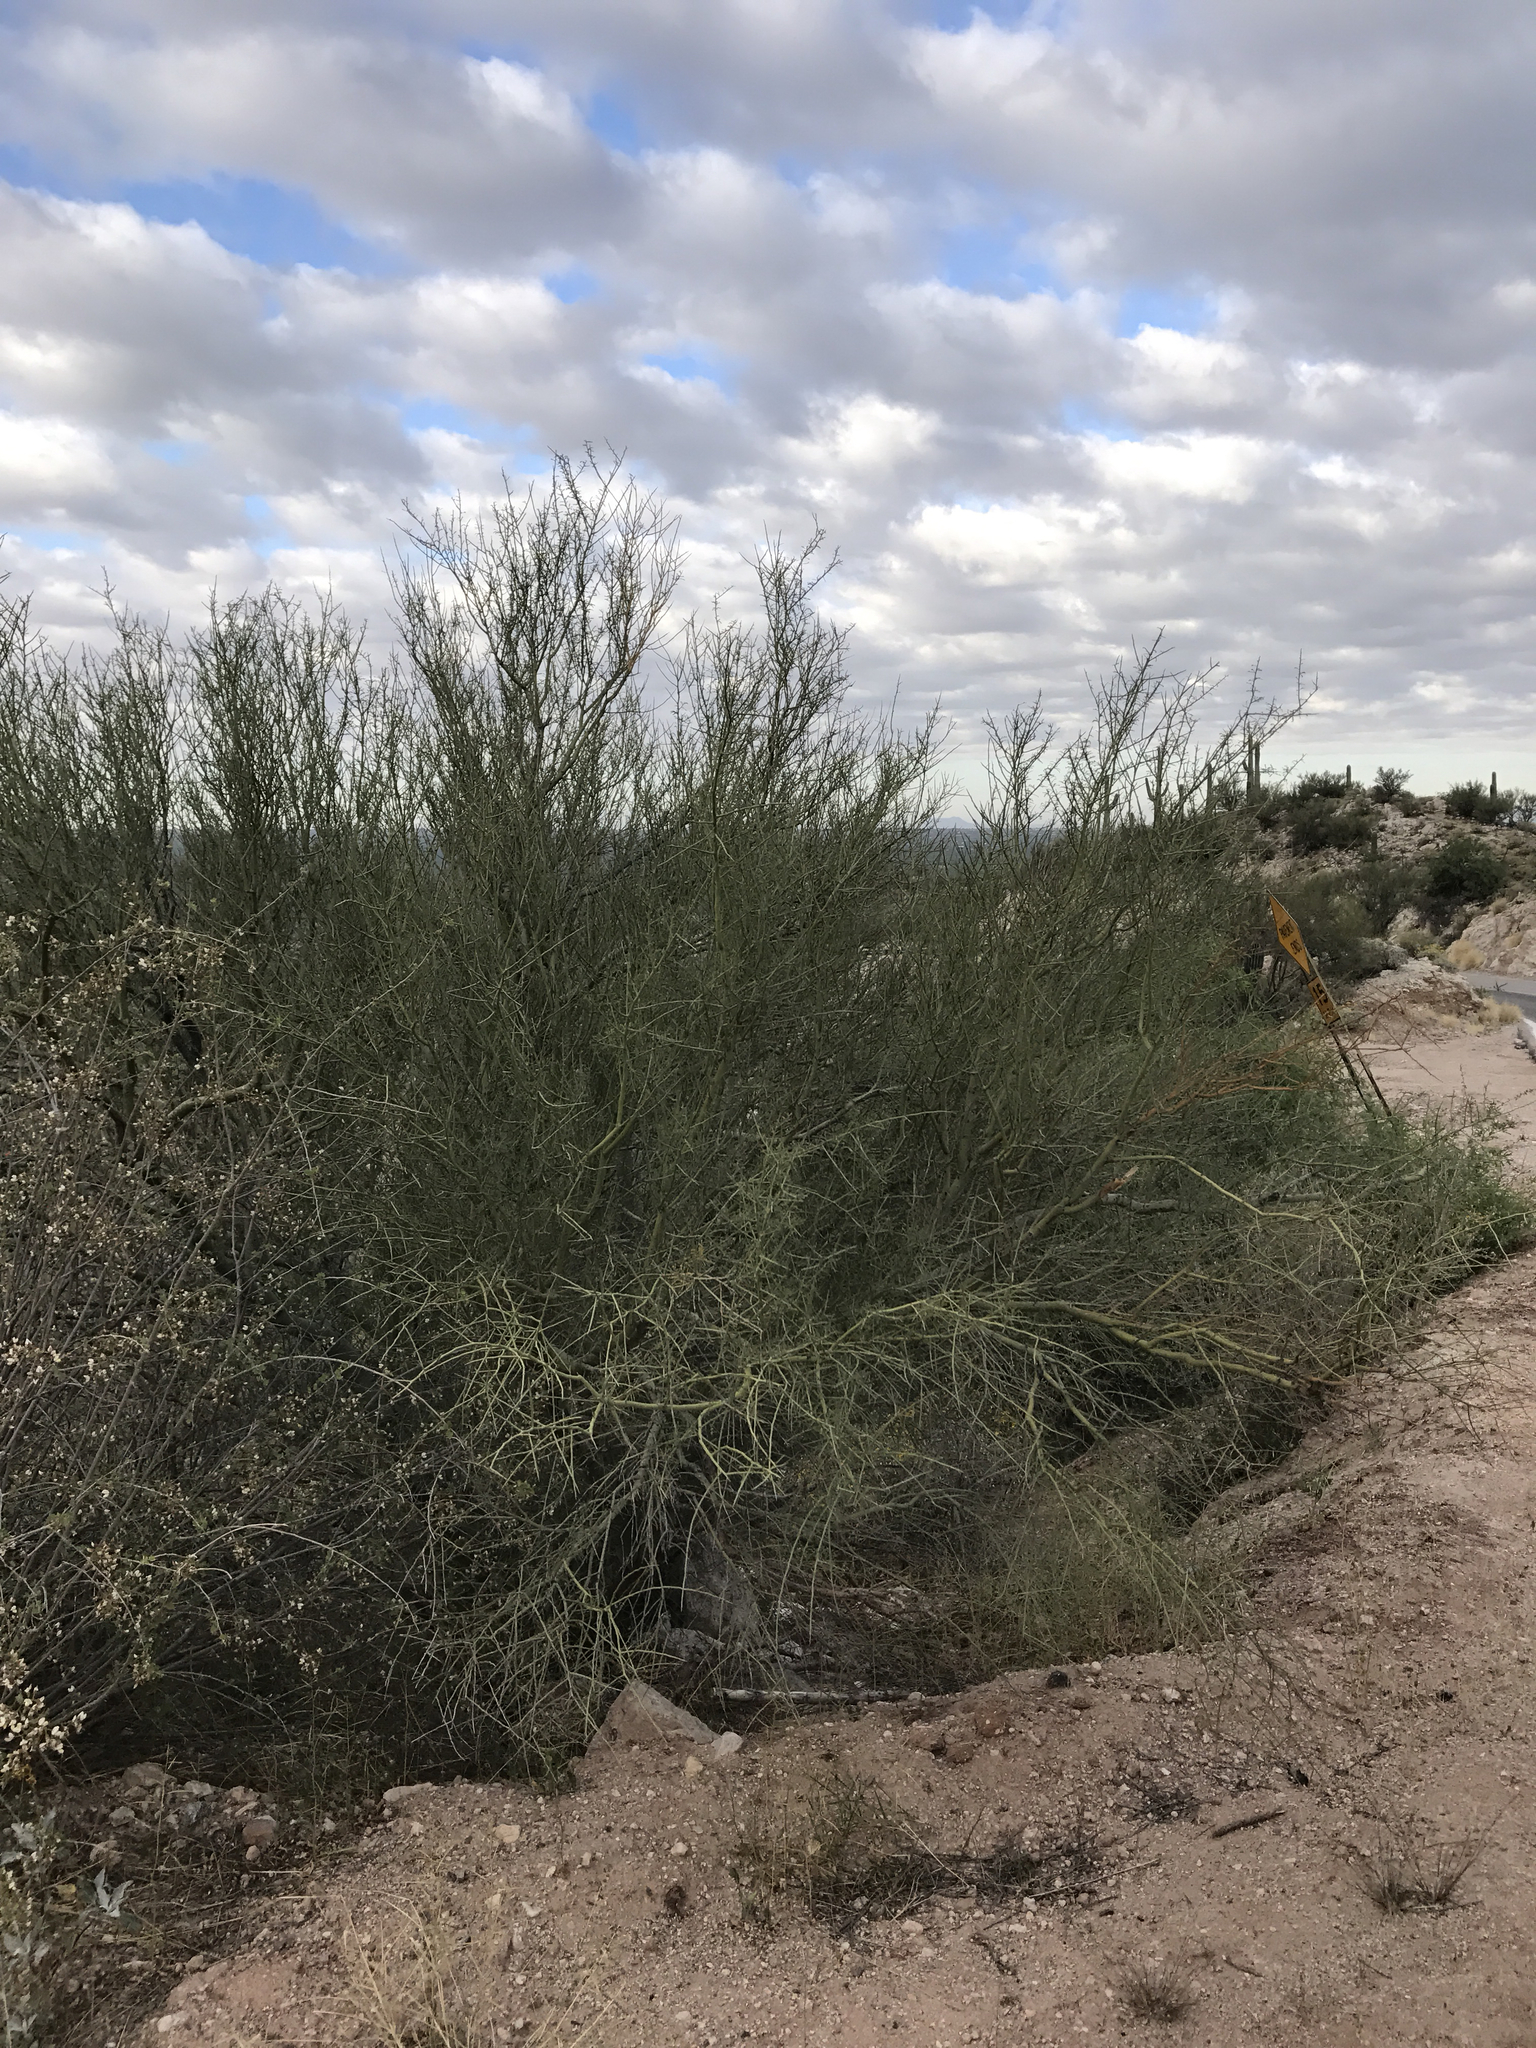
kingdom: Plantae
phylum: Tracheophyta
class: Magnoliopsida
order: Fabales
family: Fabaceae
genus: Parkinsonia
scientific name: Parkinsonia microphylla
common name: Yellow paloverde
